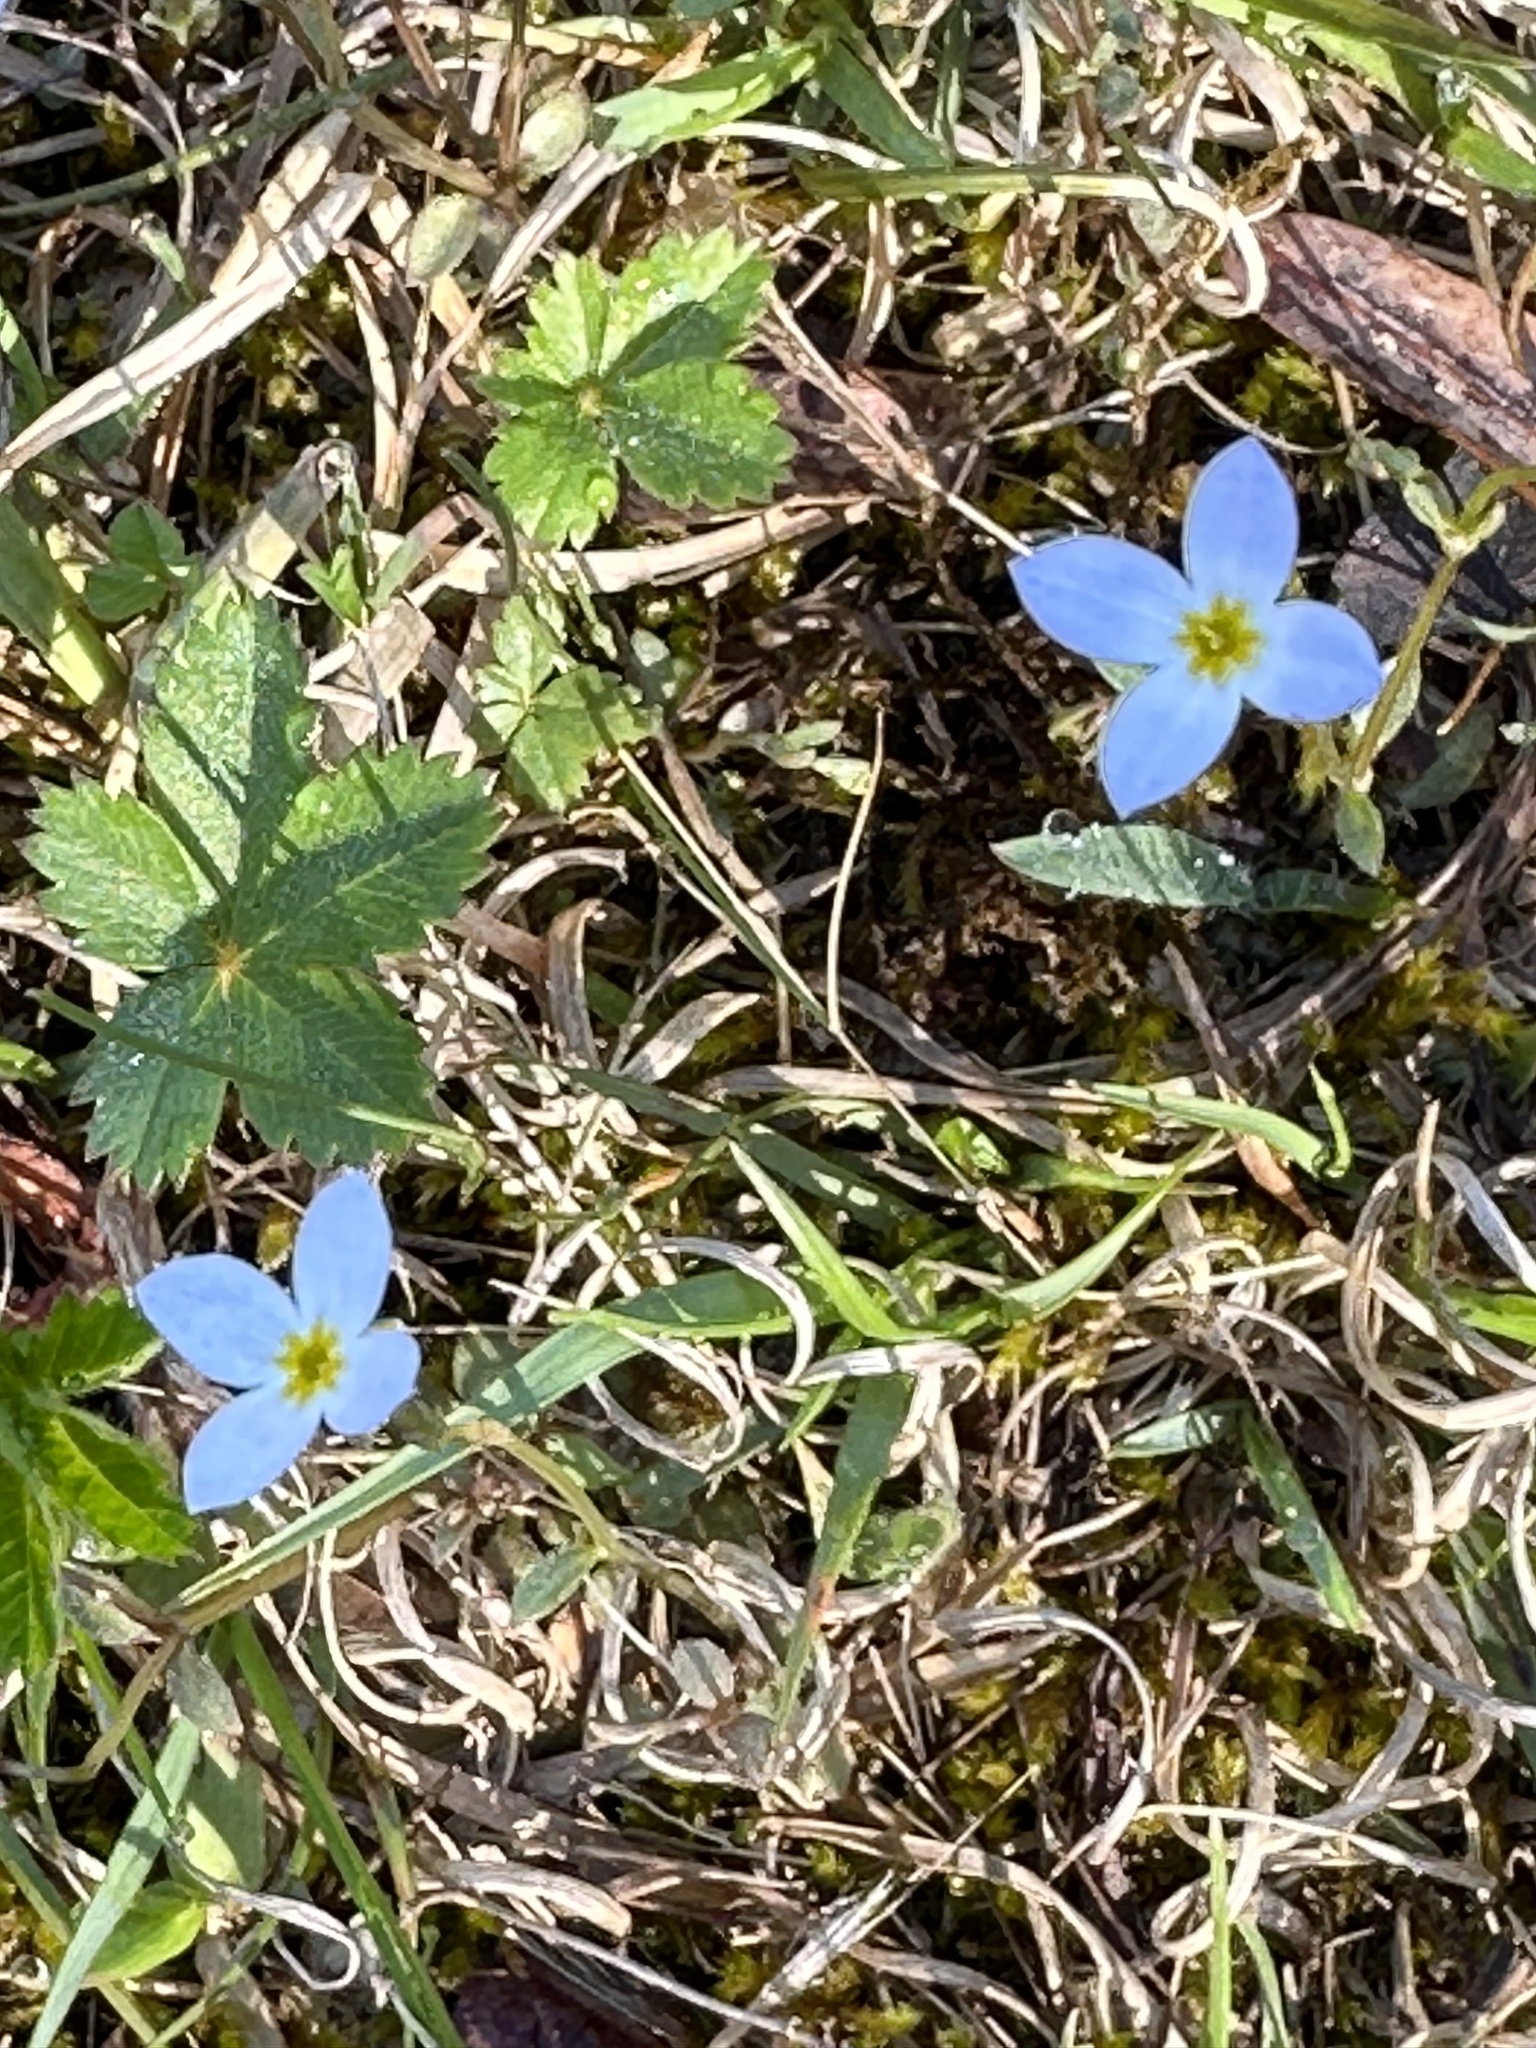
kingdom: Plantae
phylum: Tracheophyta
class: Magnoliopsida
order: Gentianales
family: Rubiaceae
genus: Houstonia
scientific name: Houstonia caerulea
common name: Bluets
